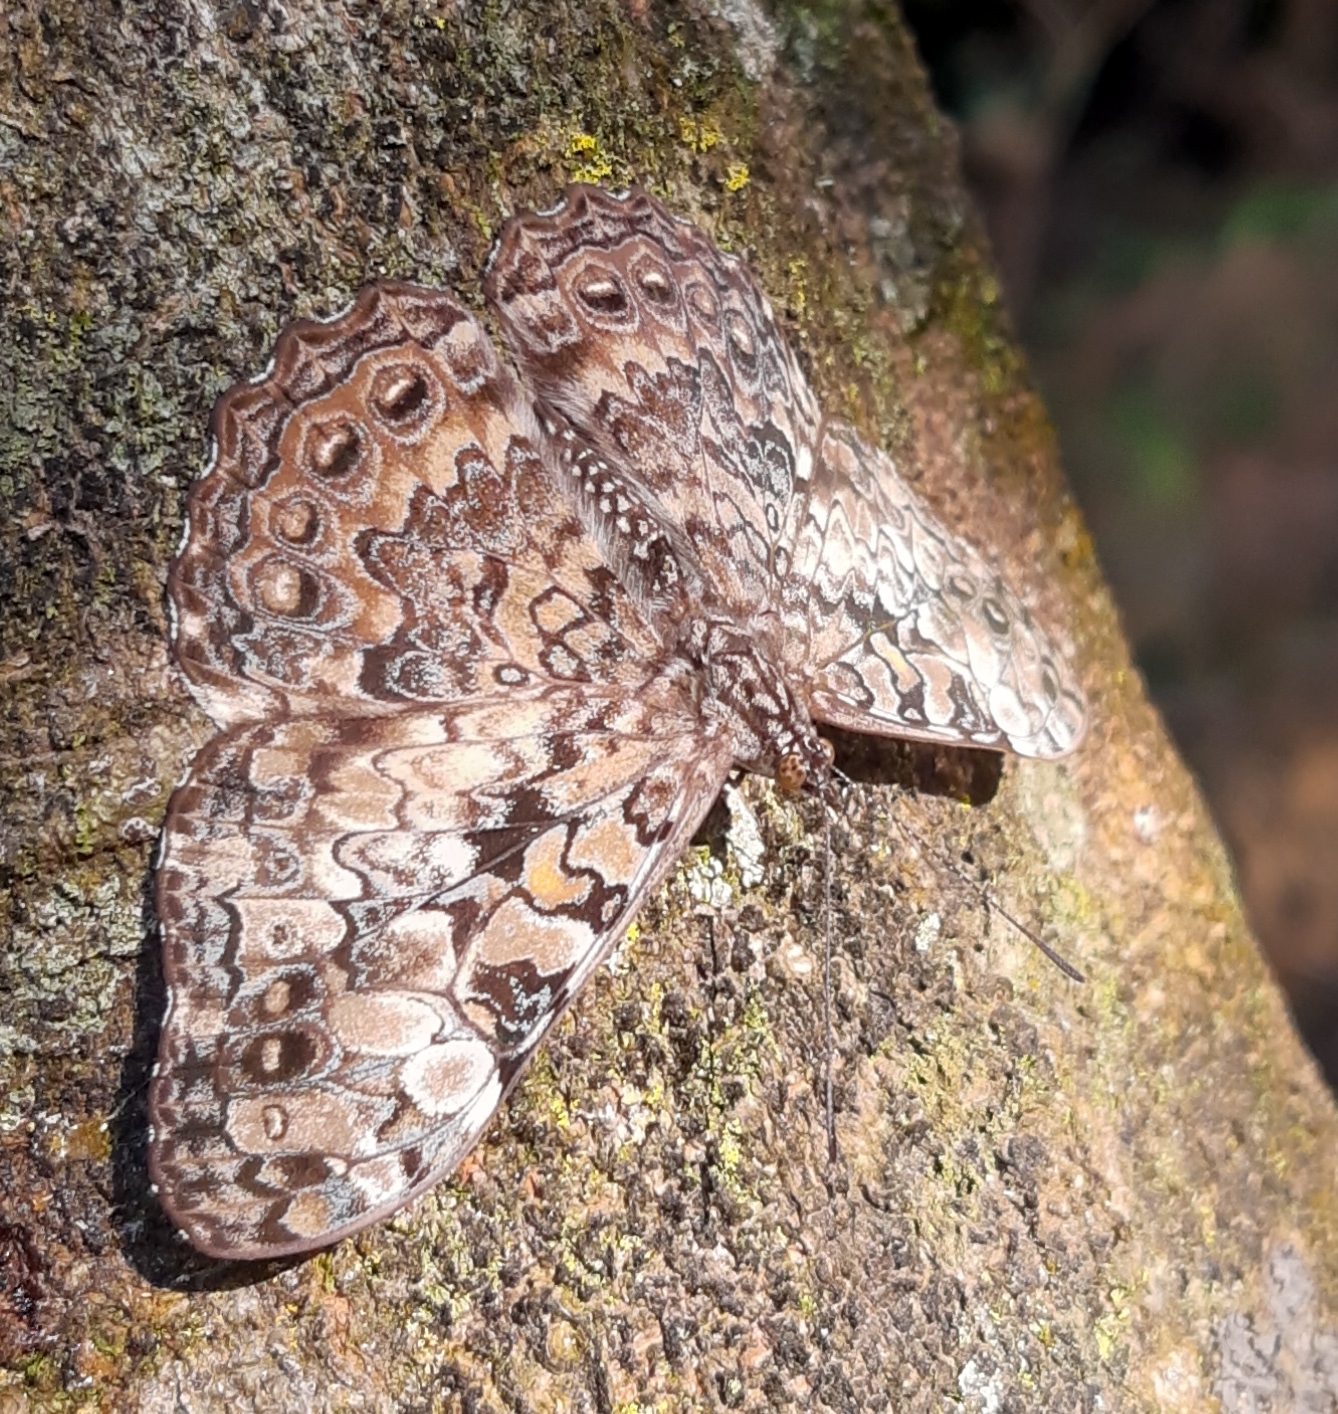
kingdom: Animalia
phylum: Arthropoda
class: Insecta
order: Lepidoptera
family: Nymphalidae
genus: Hamadryas
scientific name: Hamadryas epinome
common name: Epinome cracker
